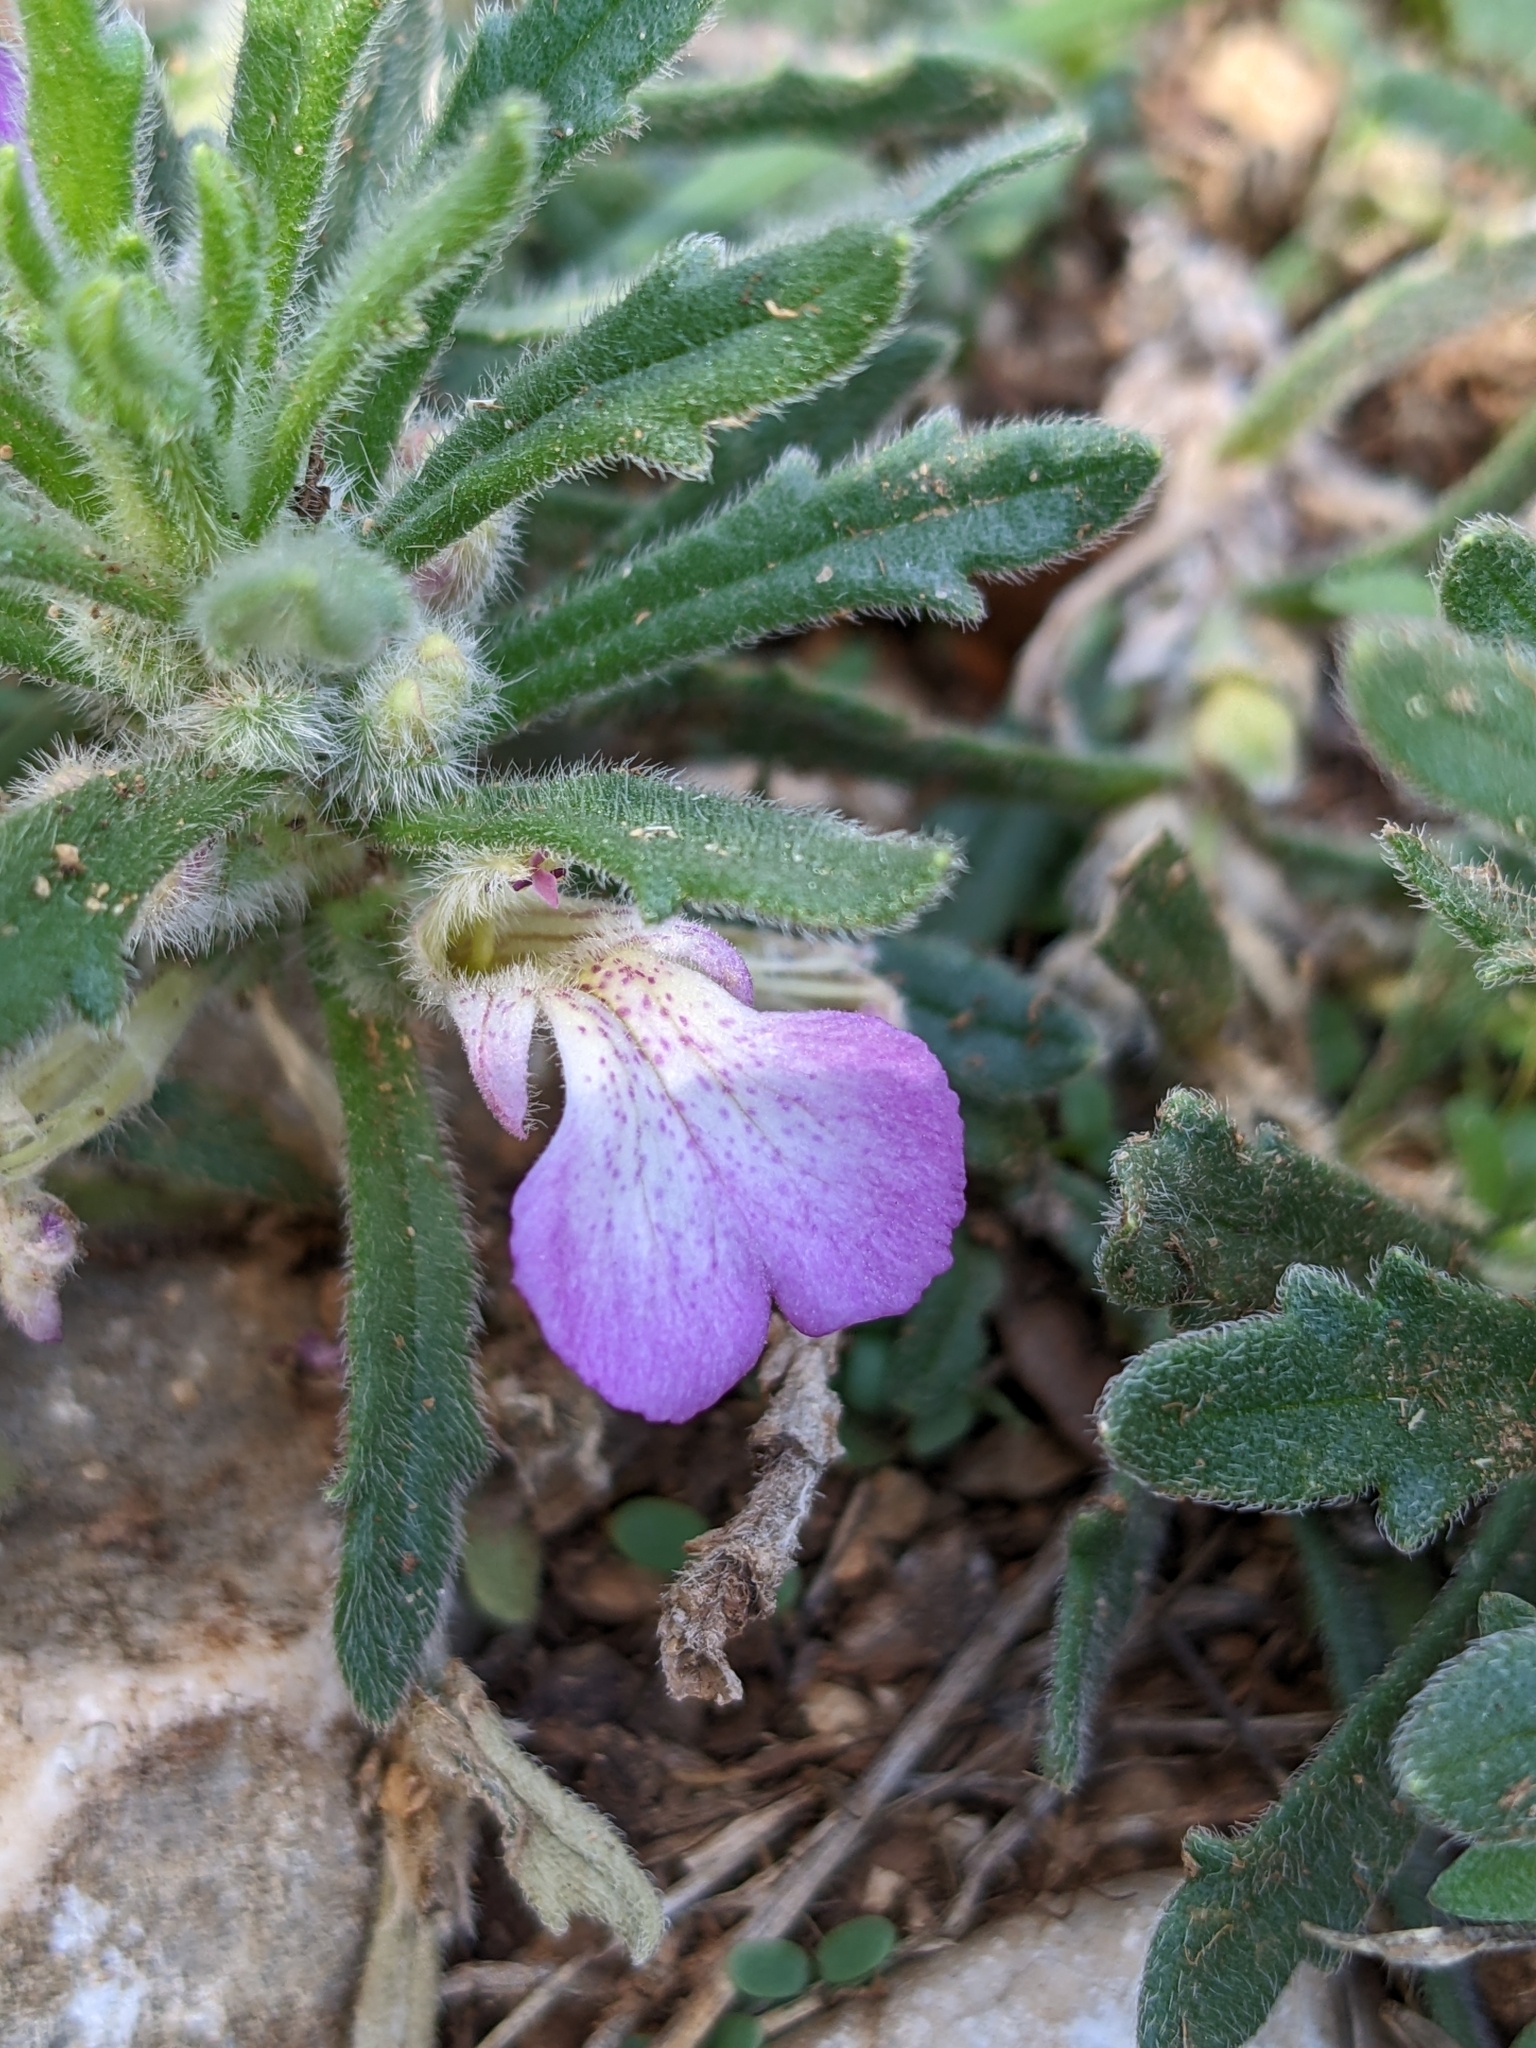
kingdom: Plantae
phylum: Tracheophyta
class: Magnoliopsida
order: Lamiales
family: Lamiaceae
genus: Ajuga
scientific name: Ajuga iva
